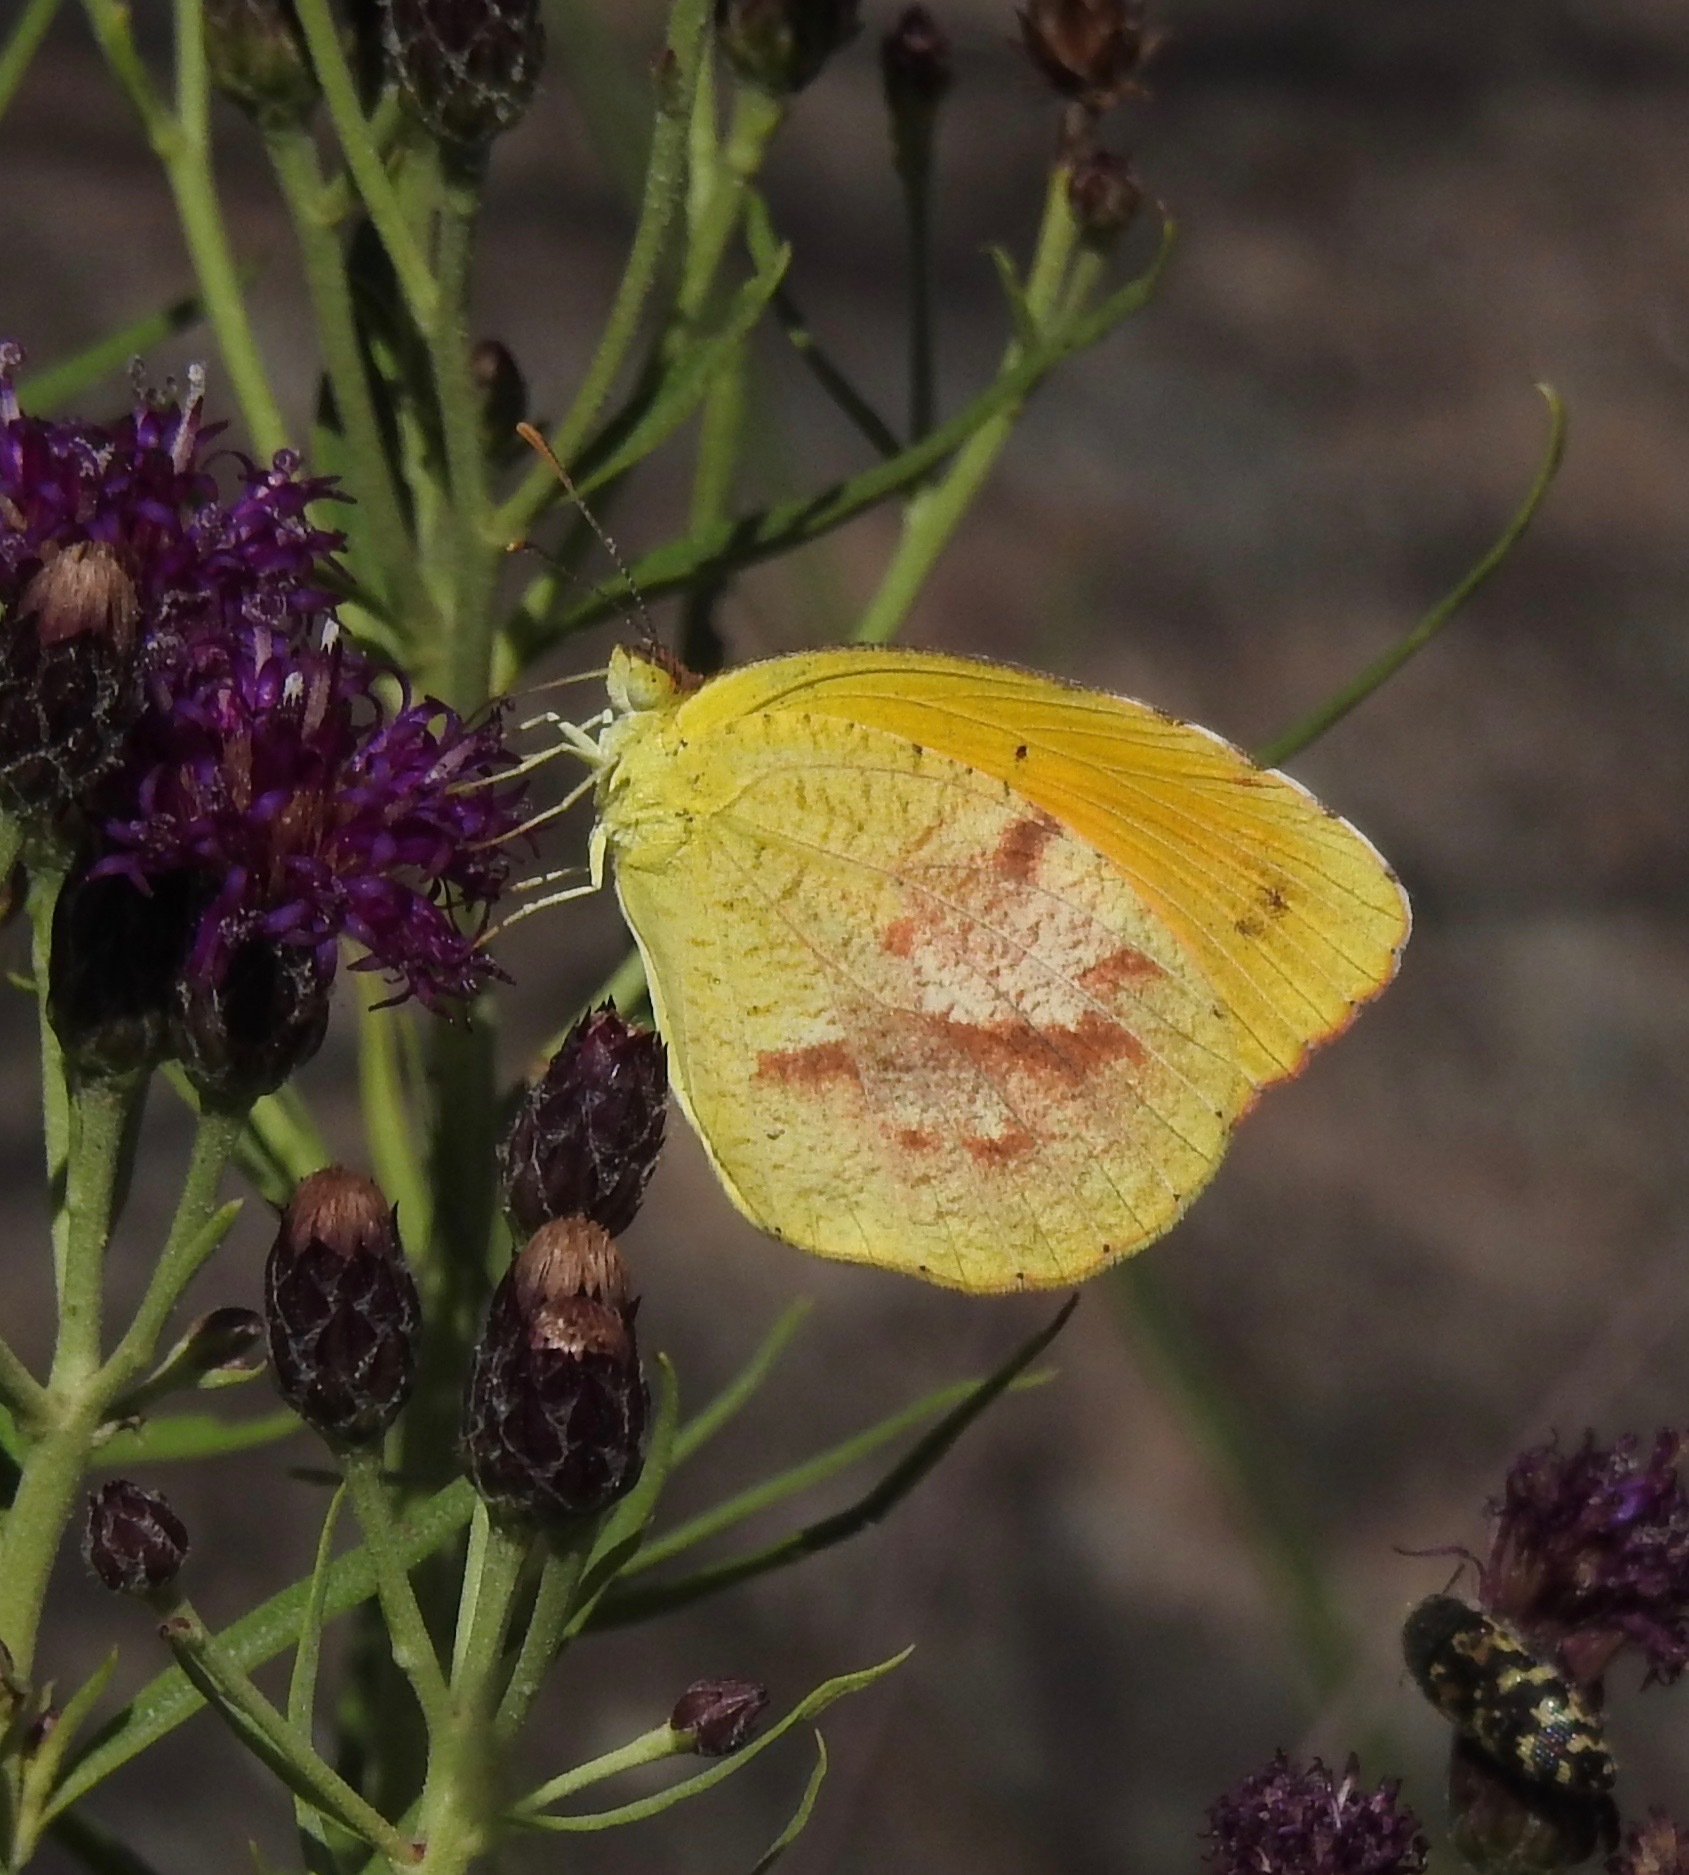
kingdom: Animalia
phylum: Arthropoda
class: Insecta
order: Lepidoptera
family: Pieridae
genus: Abaeis
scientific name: Abaeis nicippe
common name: Sleepy orange
